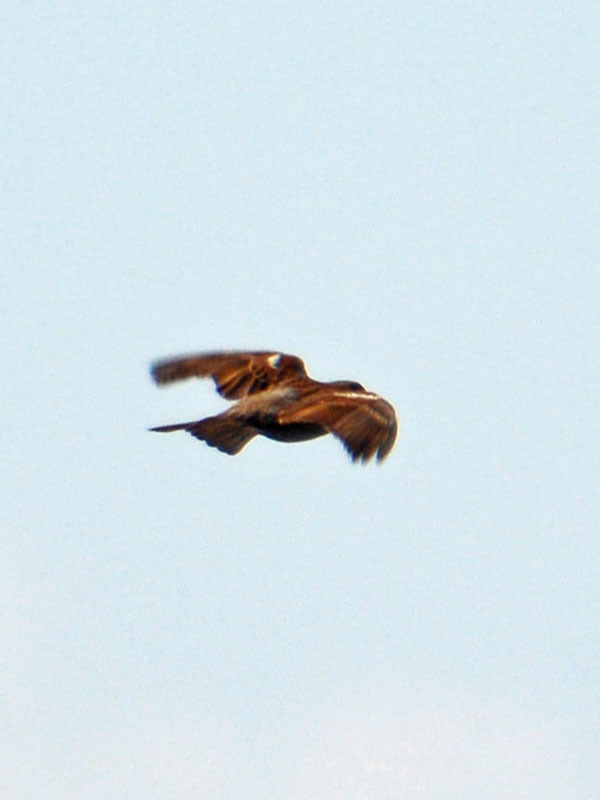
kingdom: Animalia
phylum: Chordata
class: Aves
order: Passeriformes
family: Passeridae
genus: Passer
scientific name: Passer domesticus
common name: House sparrow
